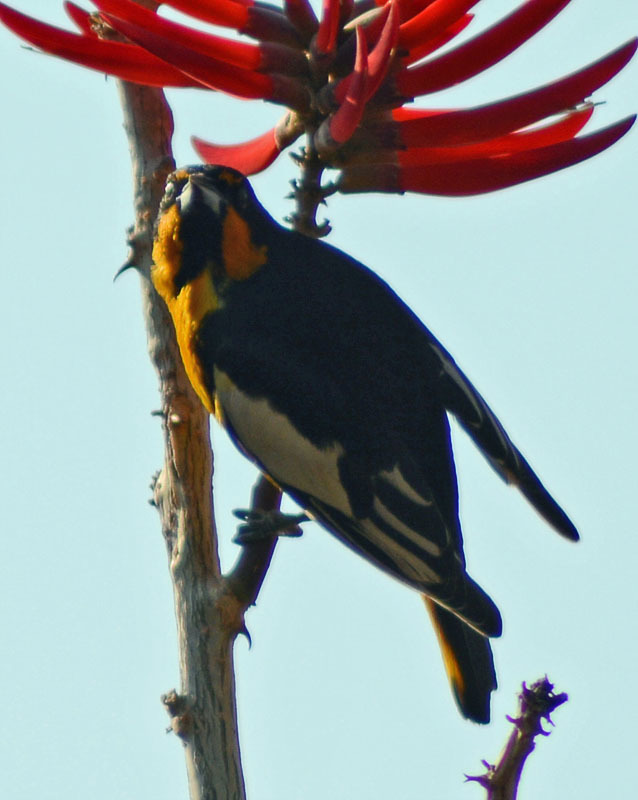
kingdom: Animalia
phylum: Chordata
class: Aves
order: Passeriformes
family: Icteridae
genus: Icterus
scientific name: Icterus abeillei
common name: Black-backed oriole
